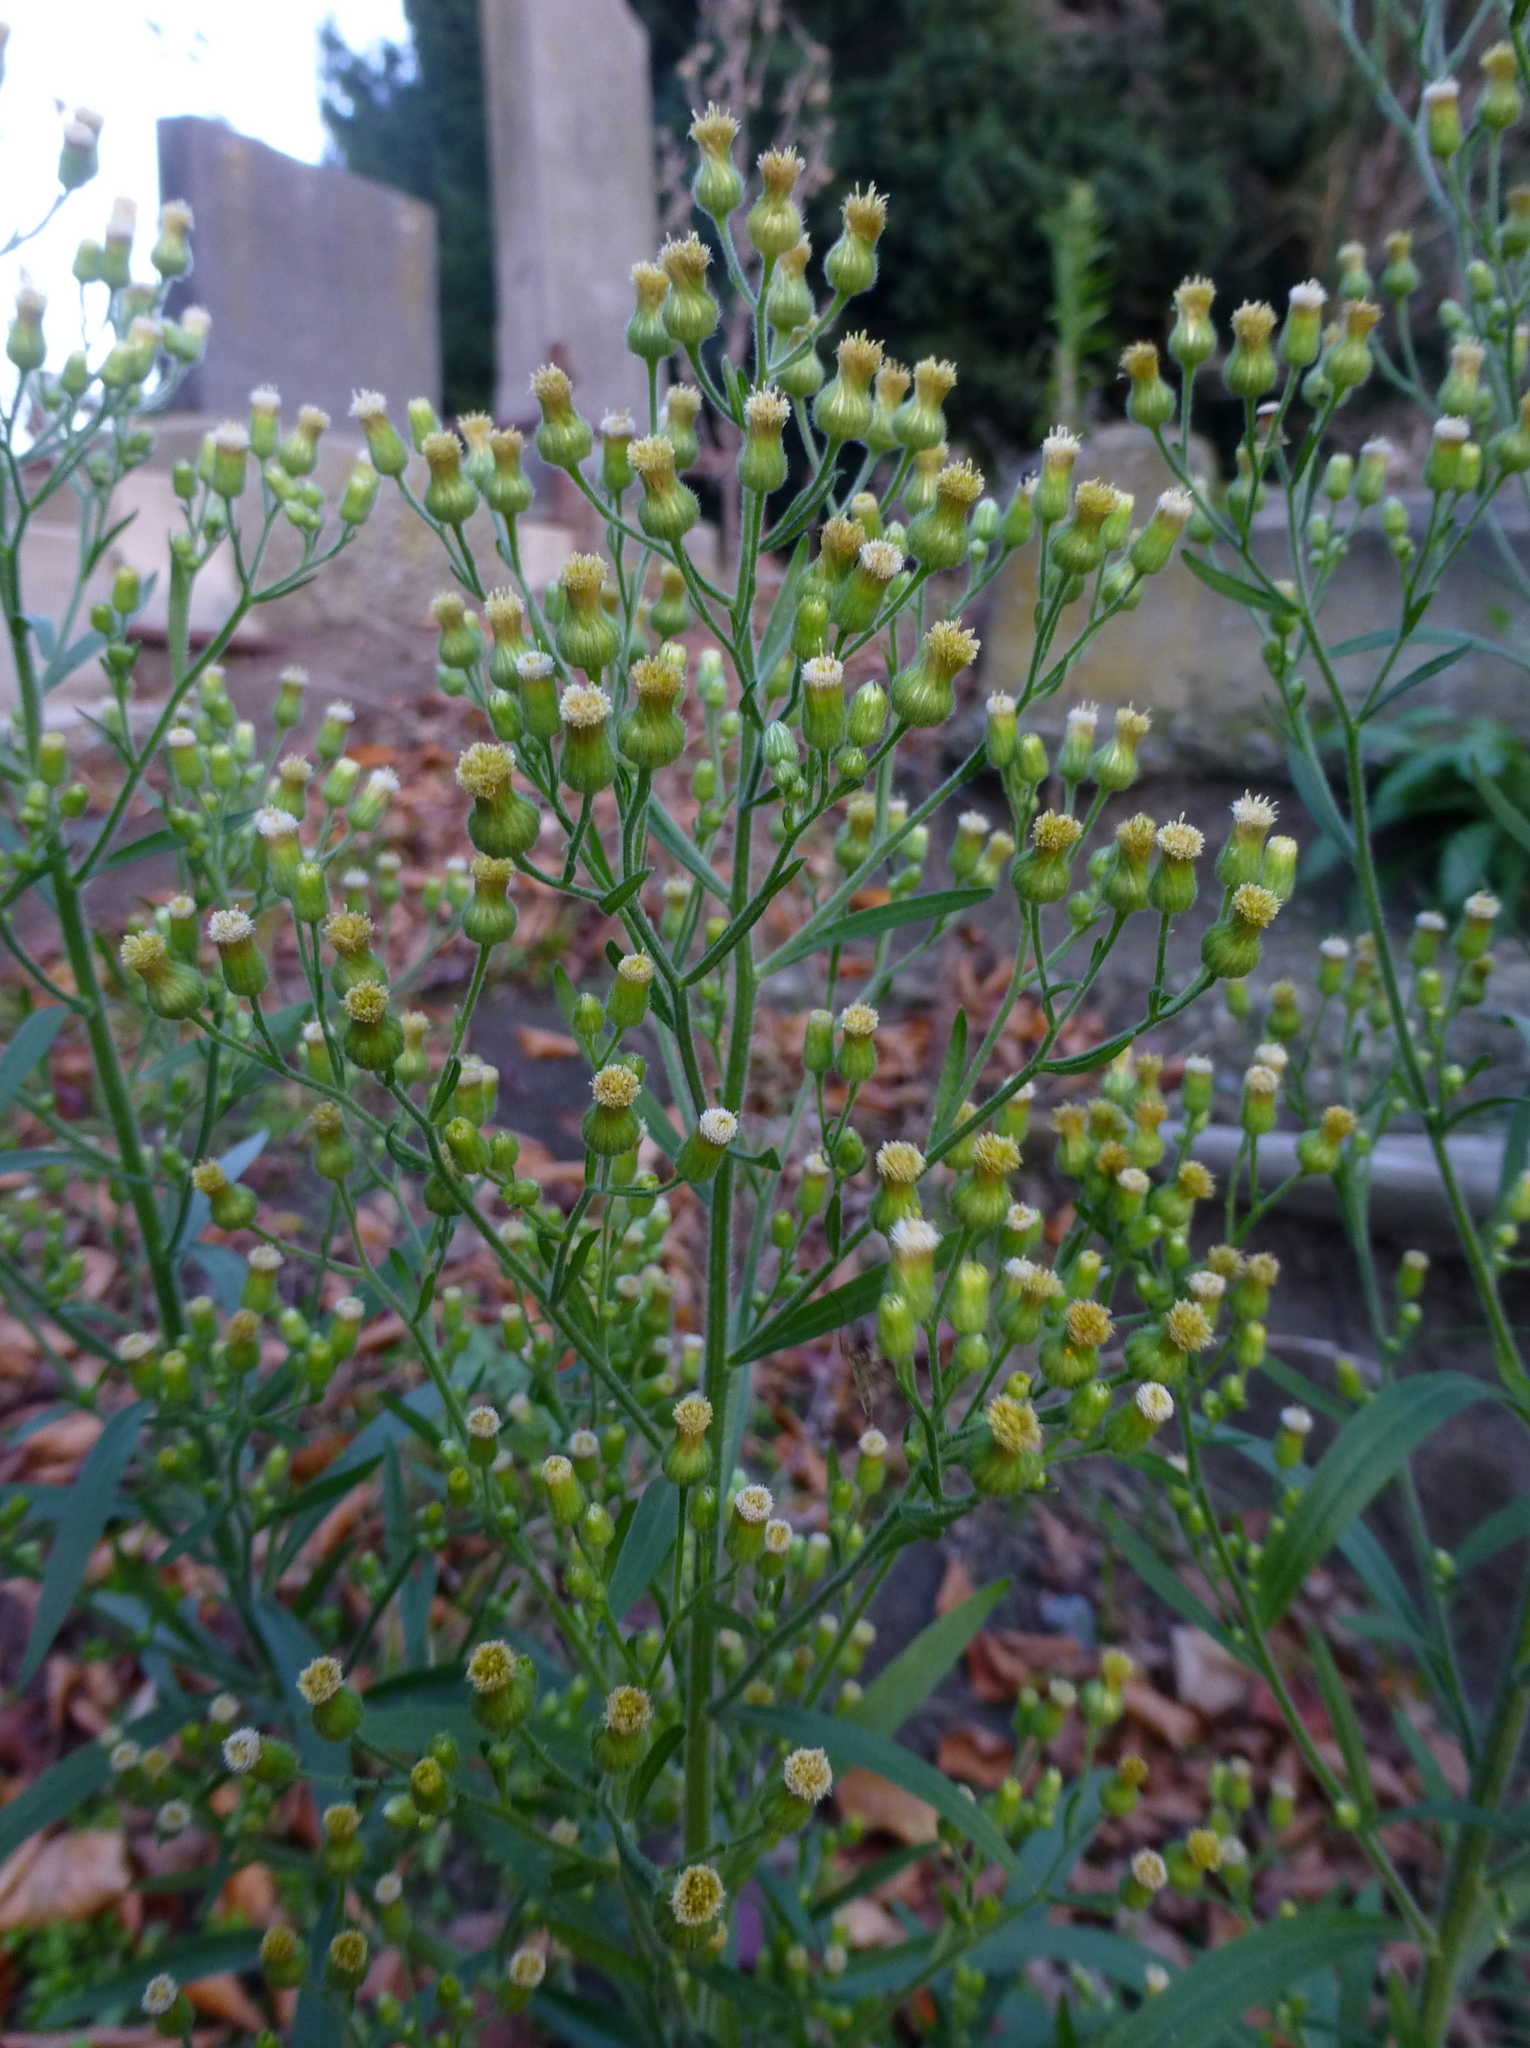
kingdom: Plantae
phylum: Tracheophyta
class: Magnoliopsida
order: Asterales
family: Asteraceae
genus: Erigeron
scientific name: Erigeron sumatrensis
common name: Daisy
